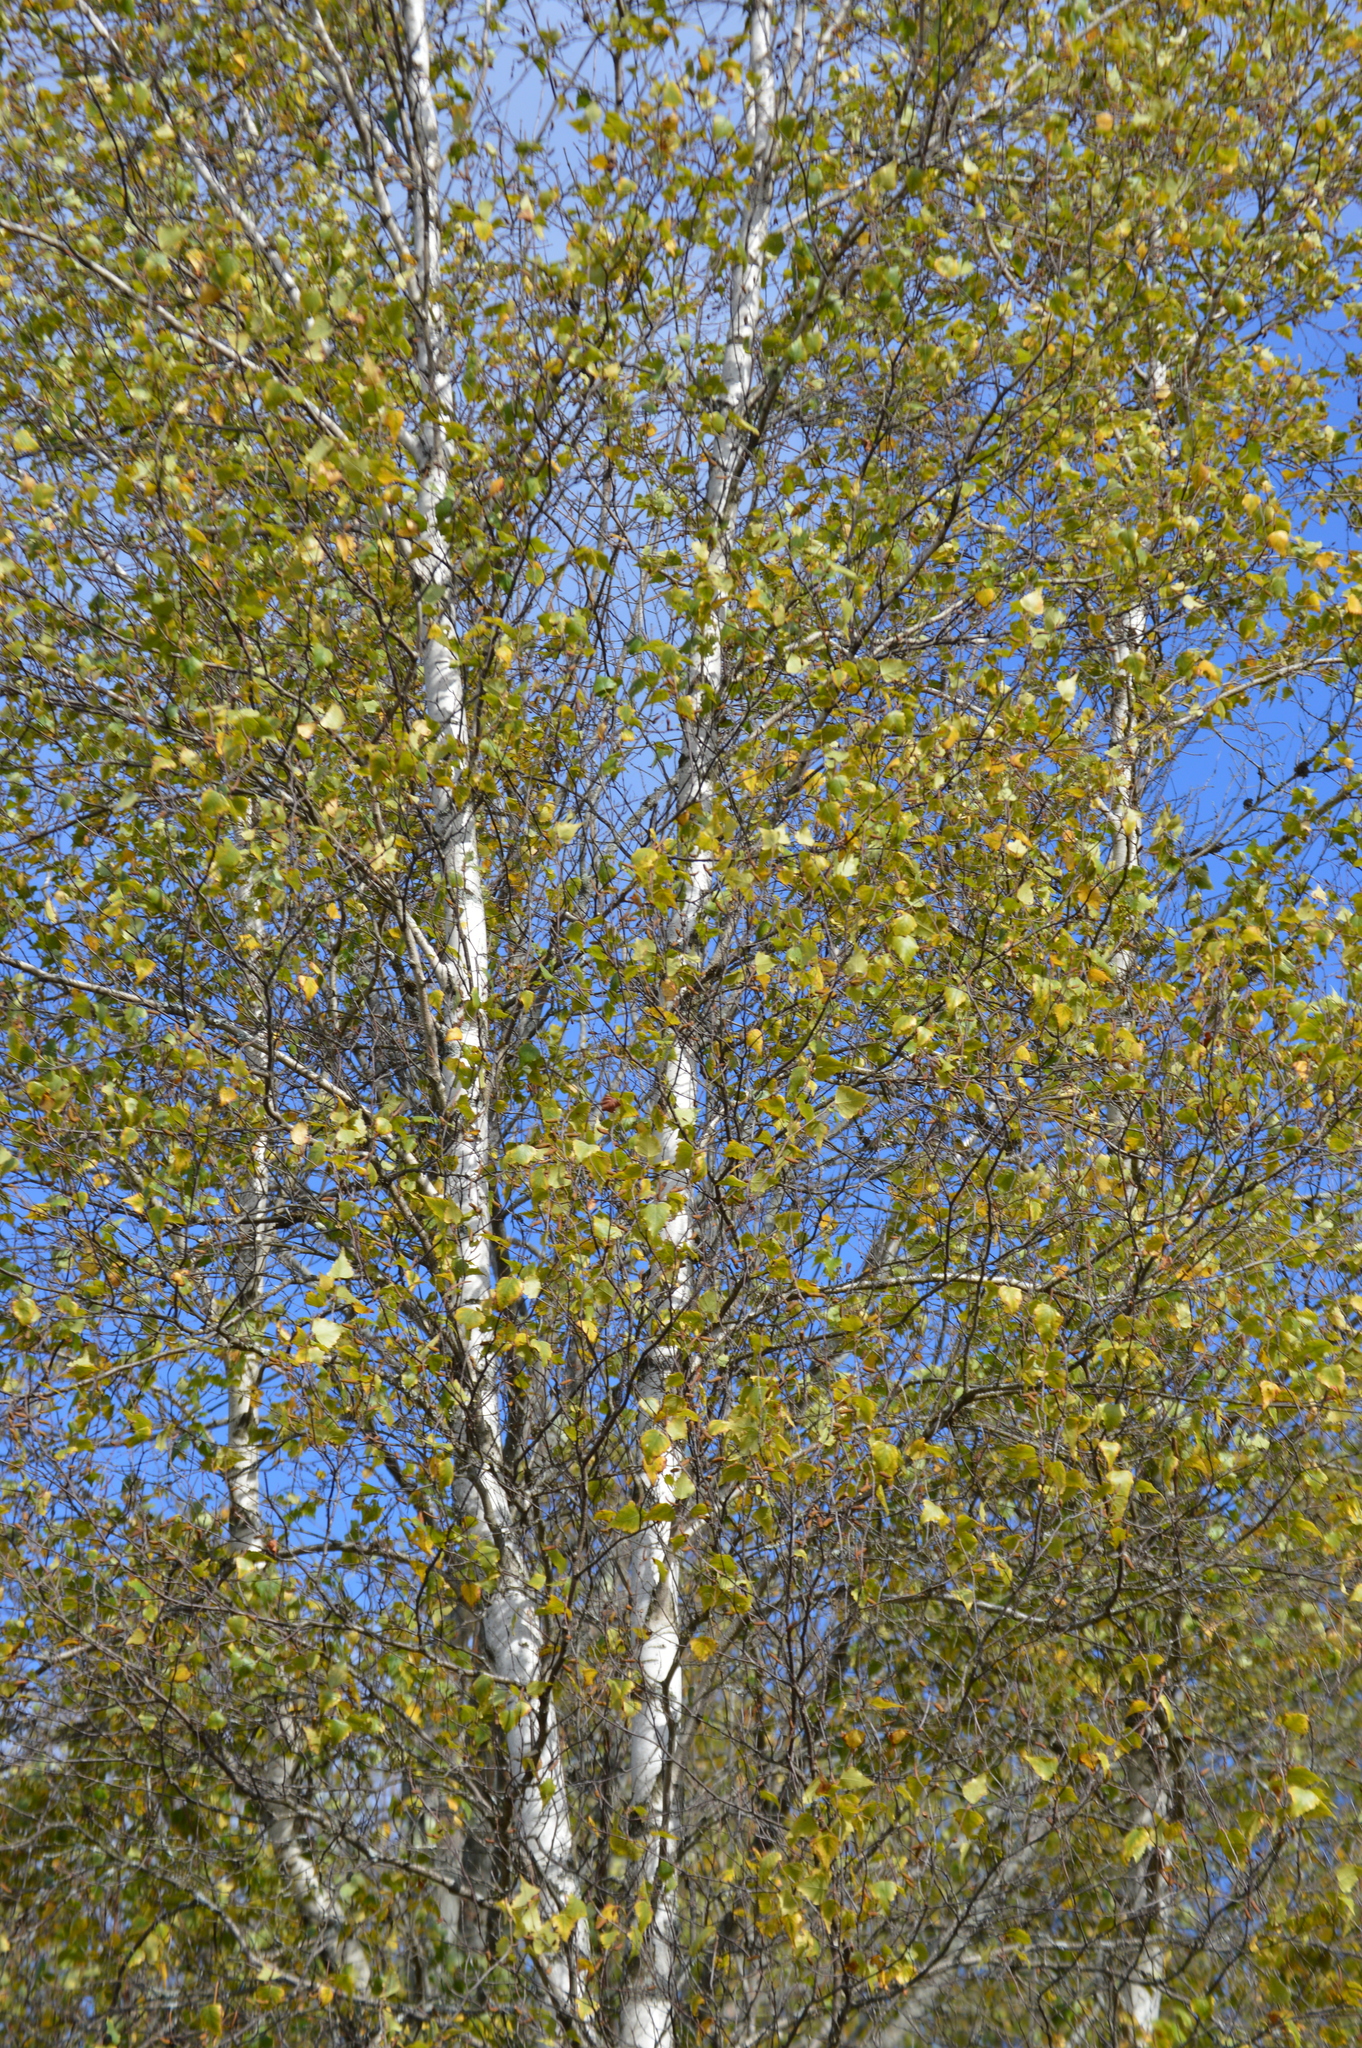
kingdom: Plantae
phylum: Tracheophyta
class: Magnoliopsida
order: Fagales
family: Betulaceae
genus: Betula
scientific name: Betula populifolia
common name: Fire birch
